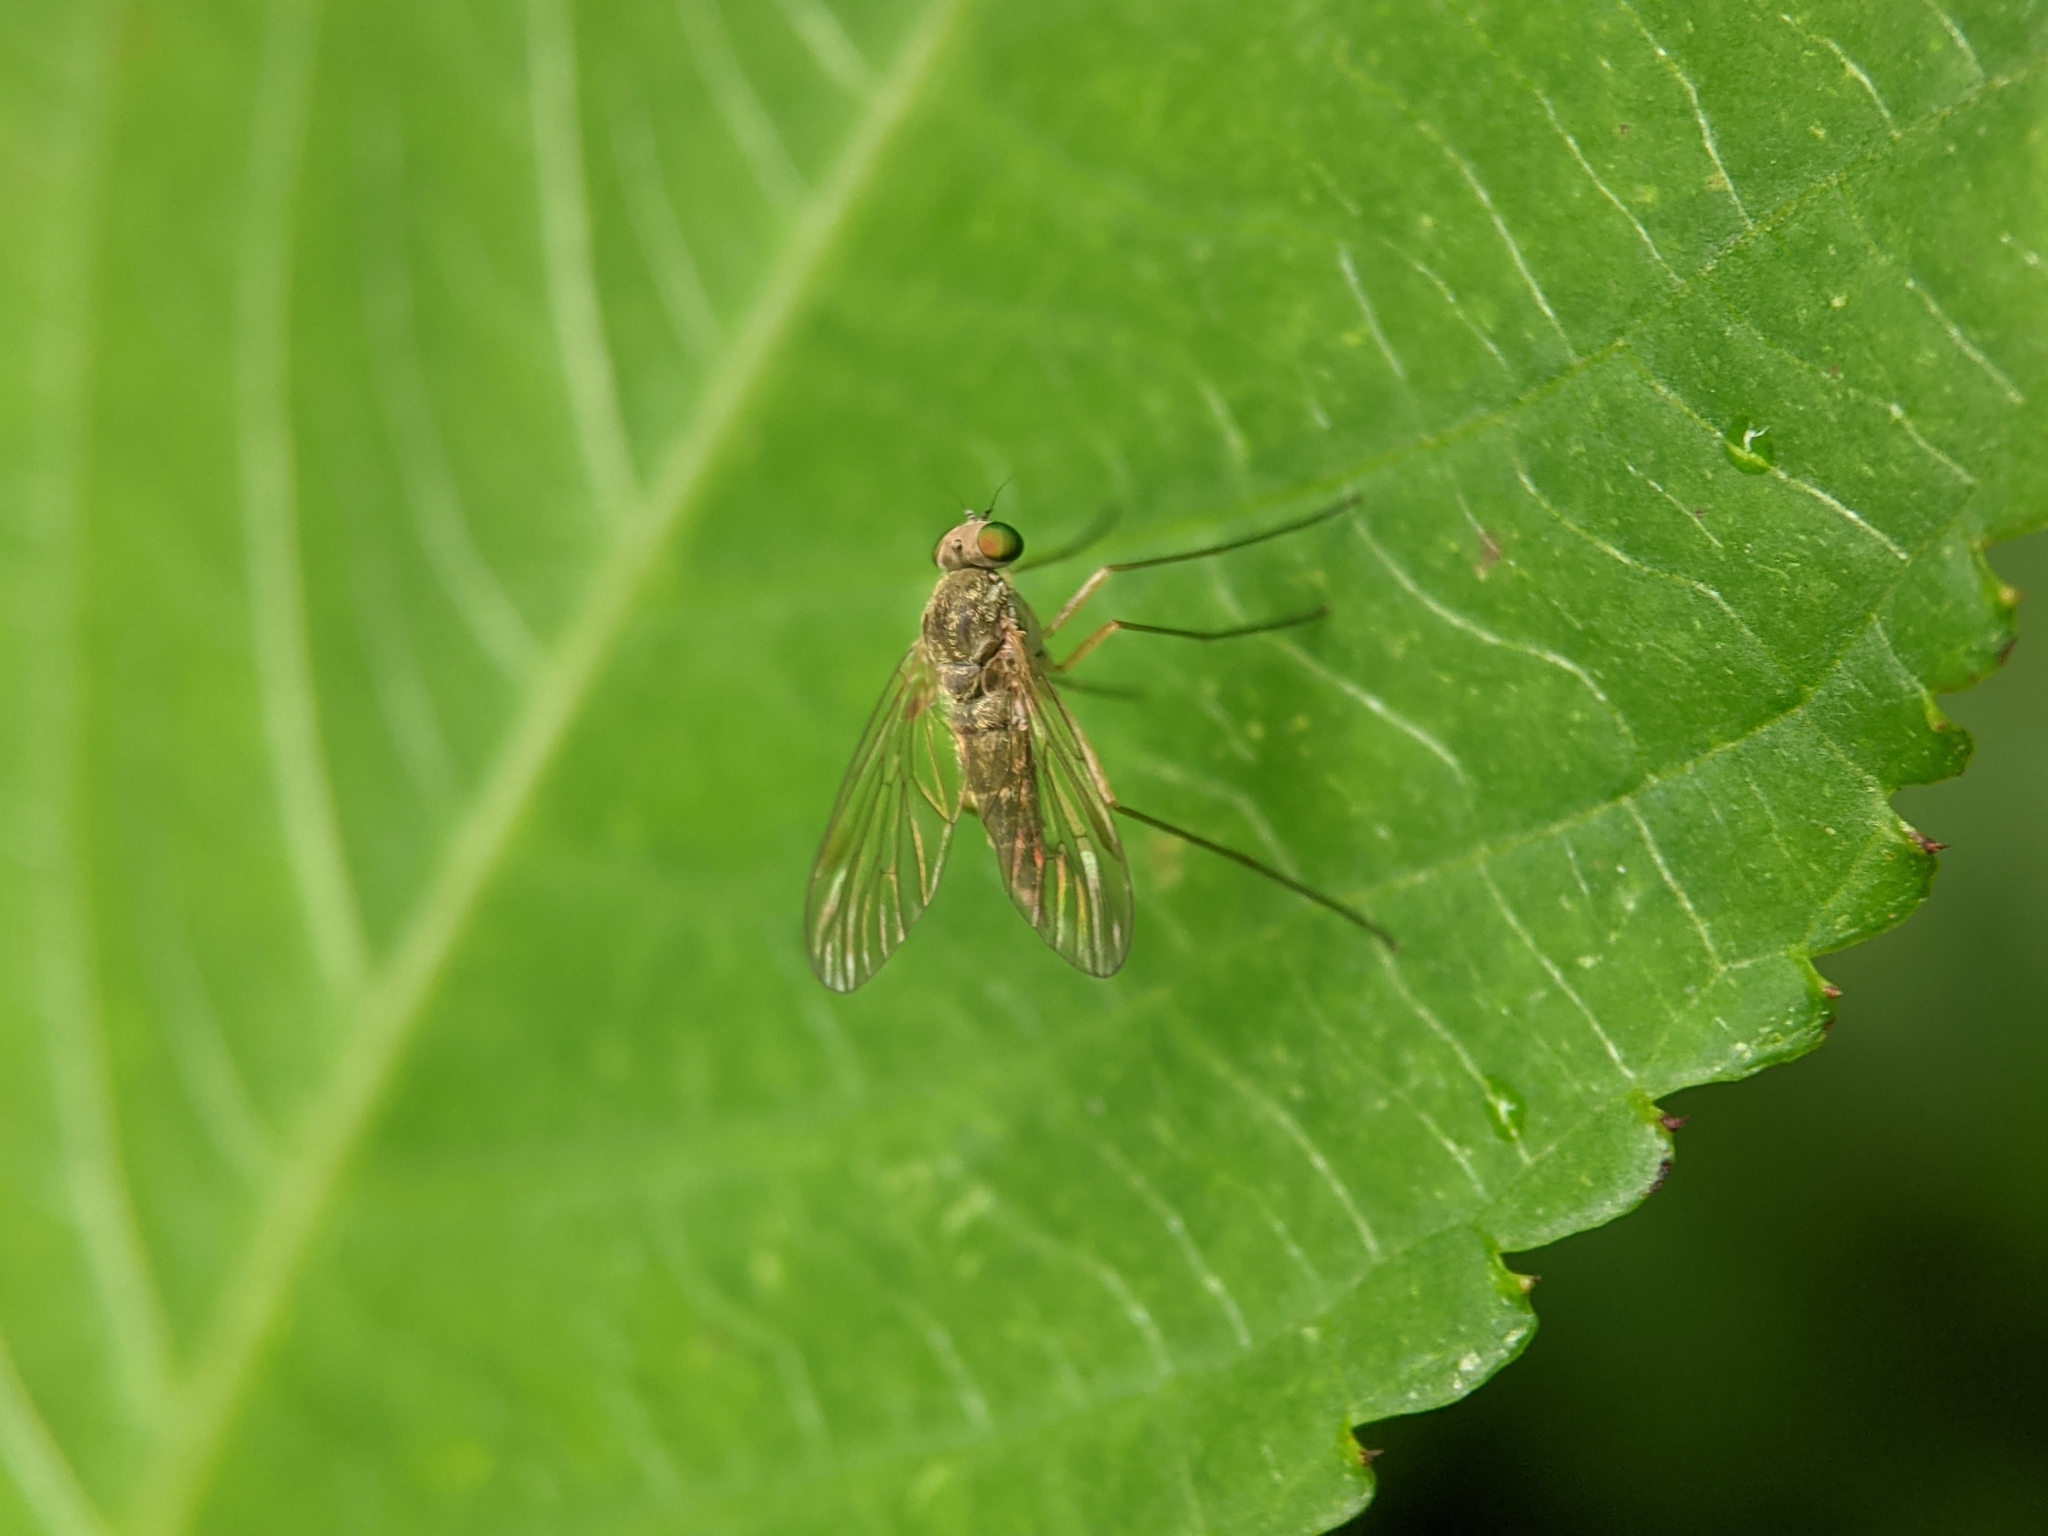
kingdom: Animalia
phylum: Arthropoda
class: Insecta
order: Diptera
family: Rhagionidae
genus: Chrysopilus
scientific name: Chrysopilus asiliformis
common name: Little snipefly
